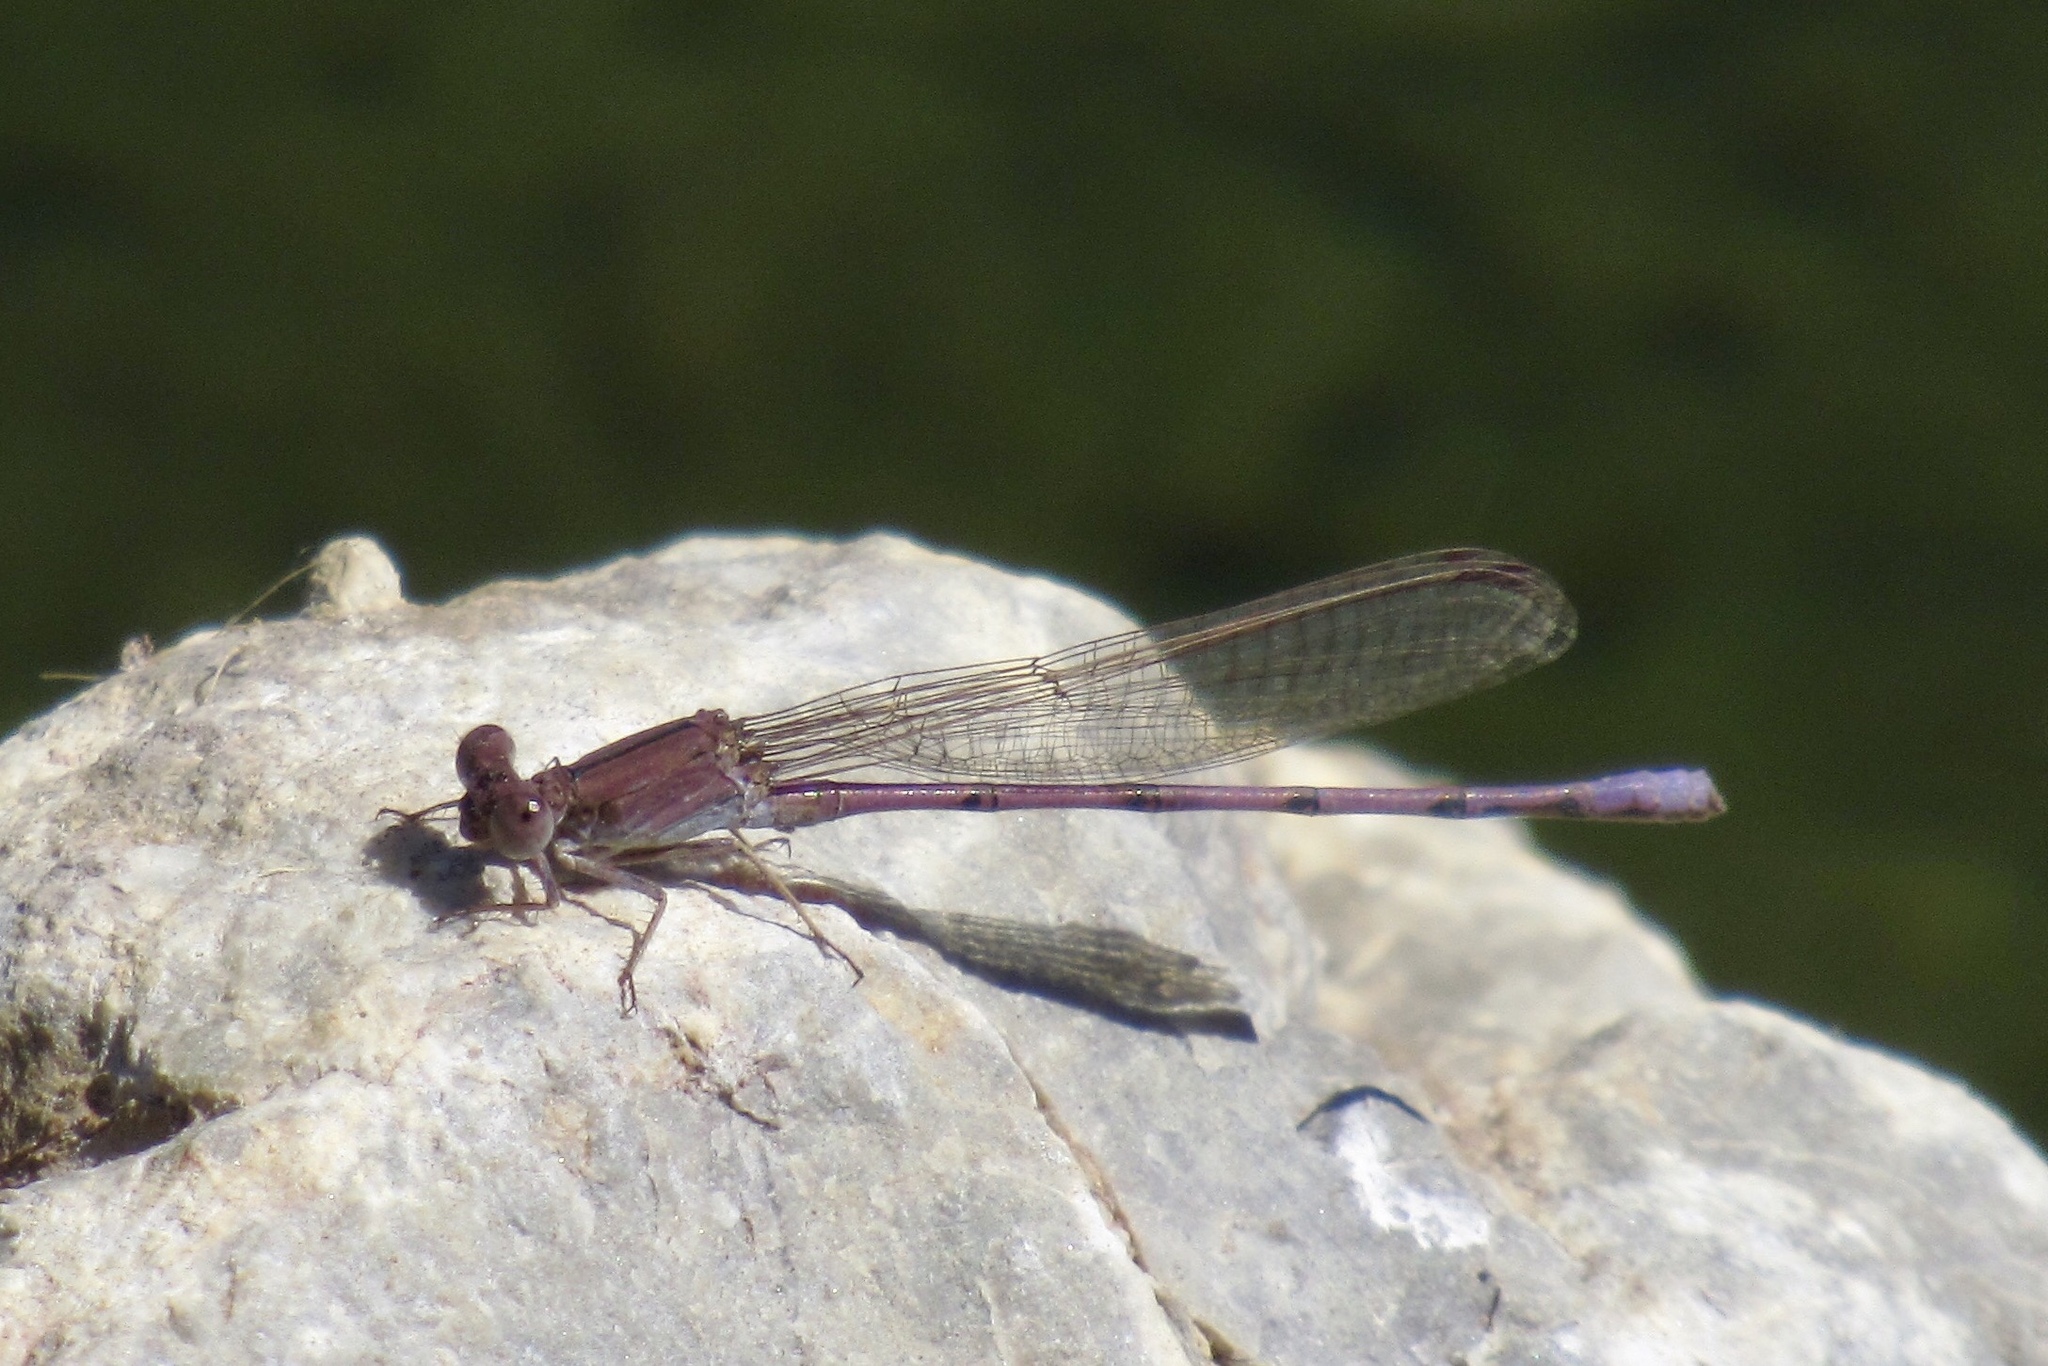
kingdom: Animalia
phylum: Arthropoda
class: Insecta
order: Odonata
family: Coenagrionidae
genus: Argia
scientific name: Argia pallens
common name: Amethyst dancer
